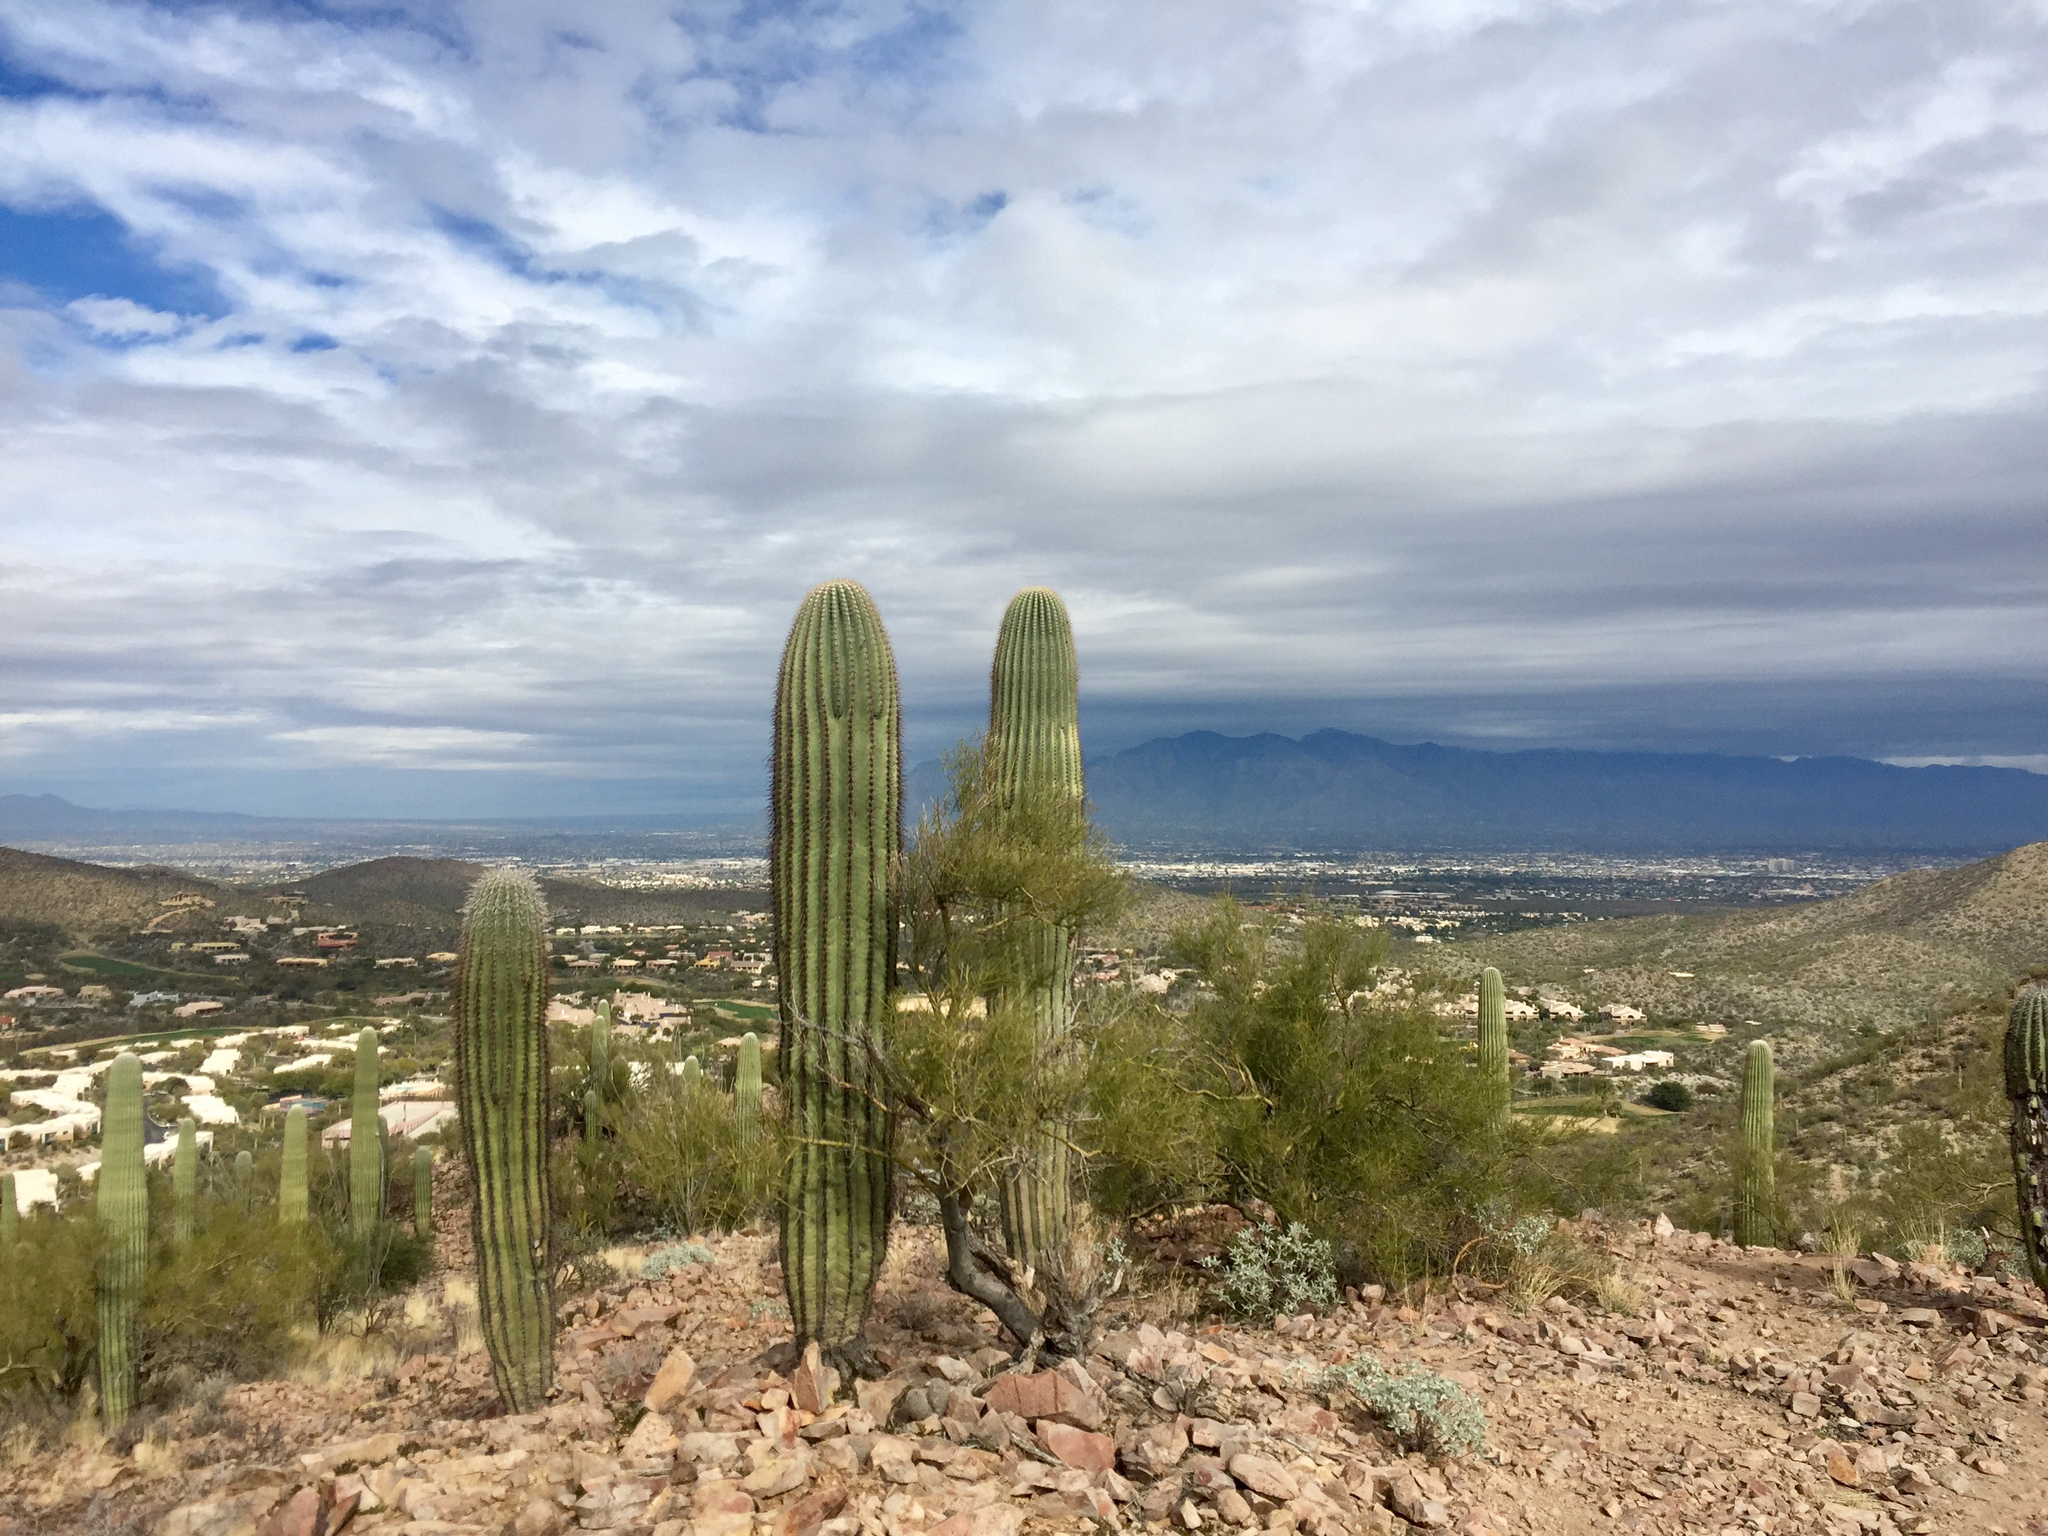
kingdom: Plantae
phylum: Tracheophyta
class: Magnoliopsida
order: Caryophyllales
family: Cactaceae
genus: Carnegiea
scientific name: Carnegiea gigantea
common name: Saguaro
